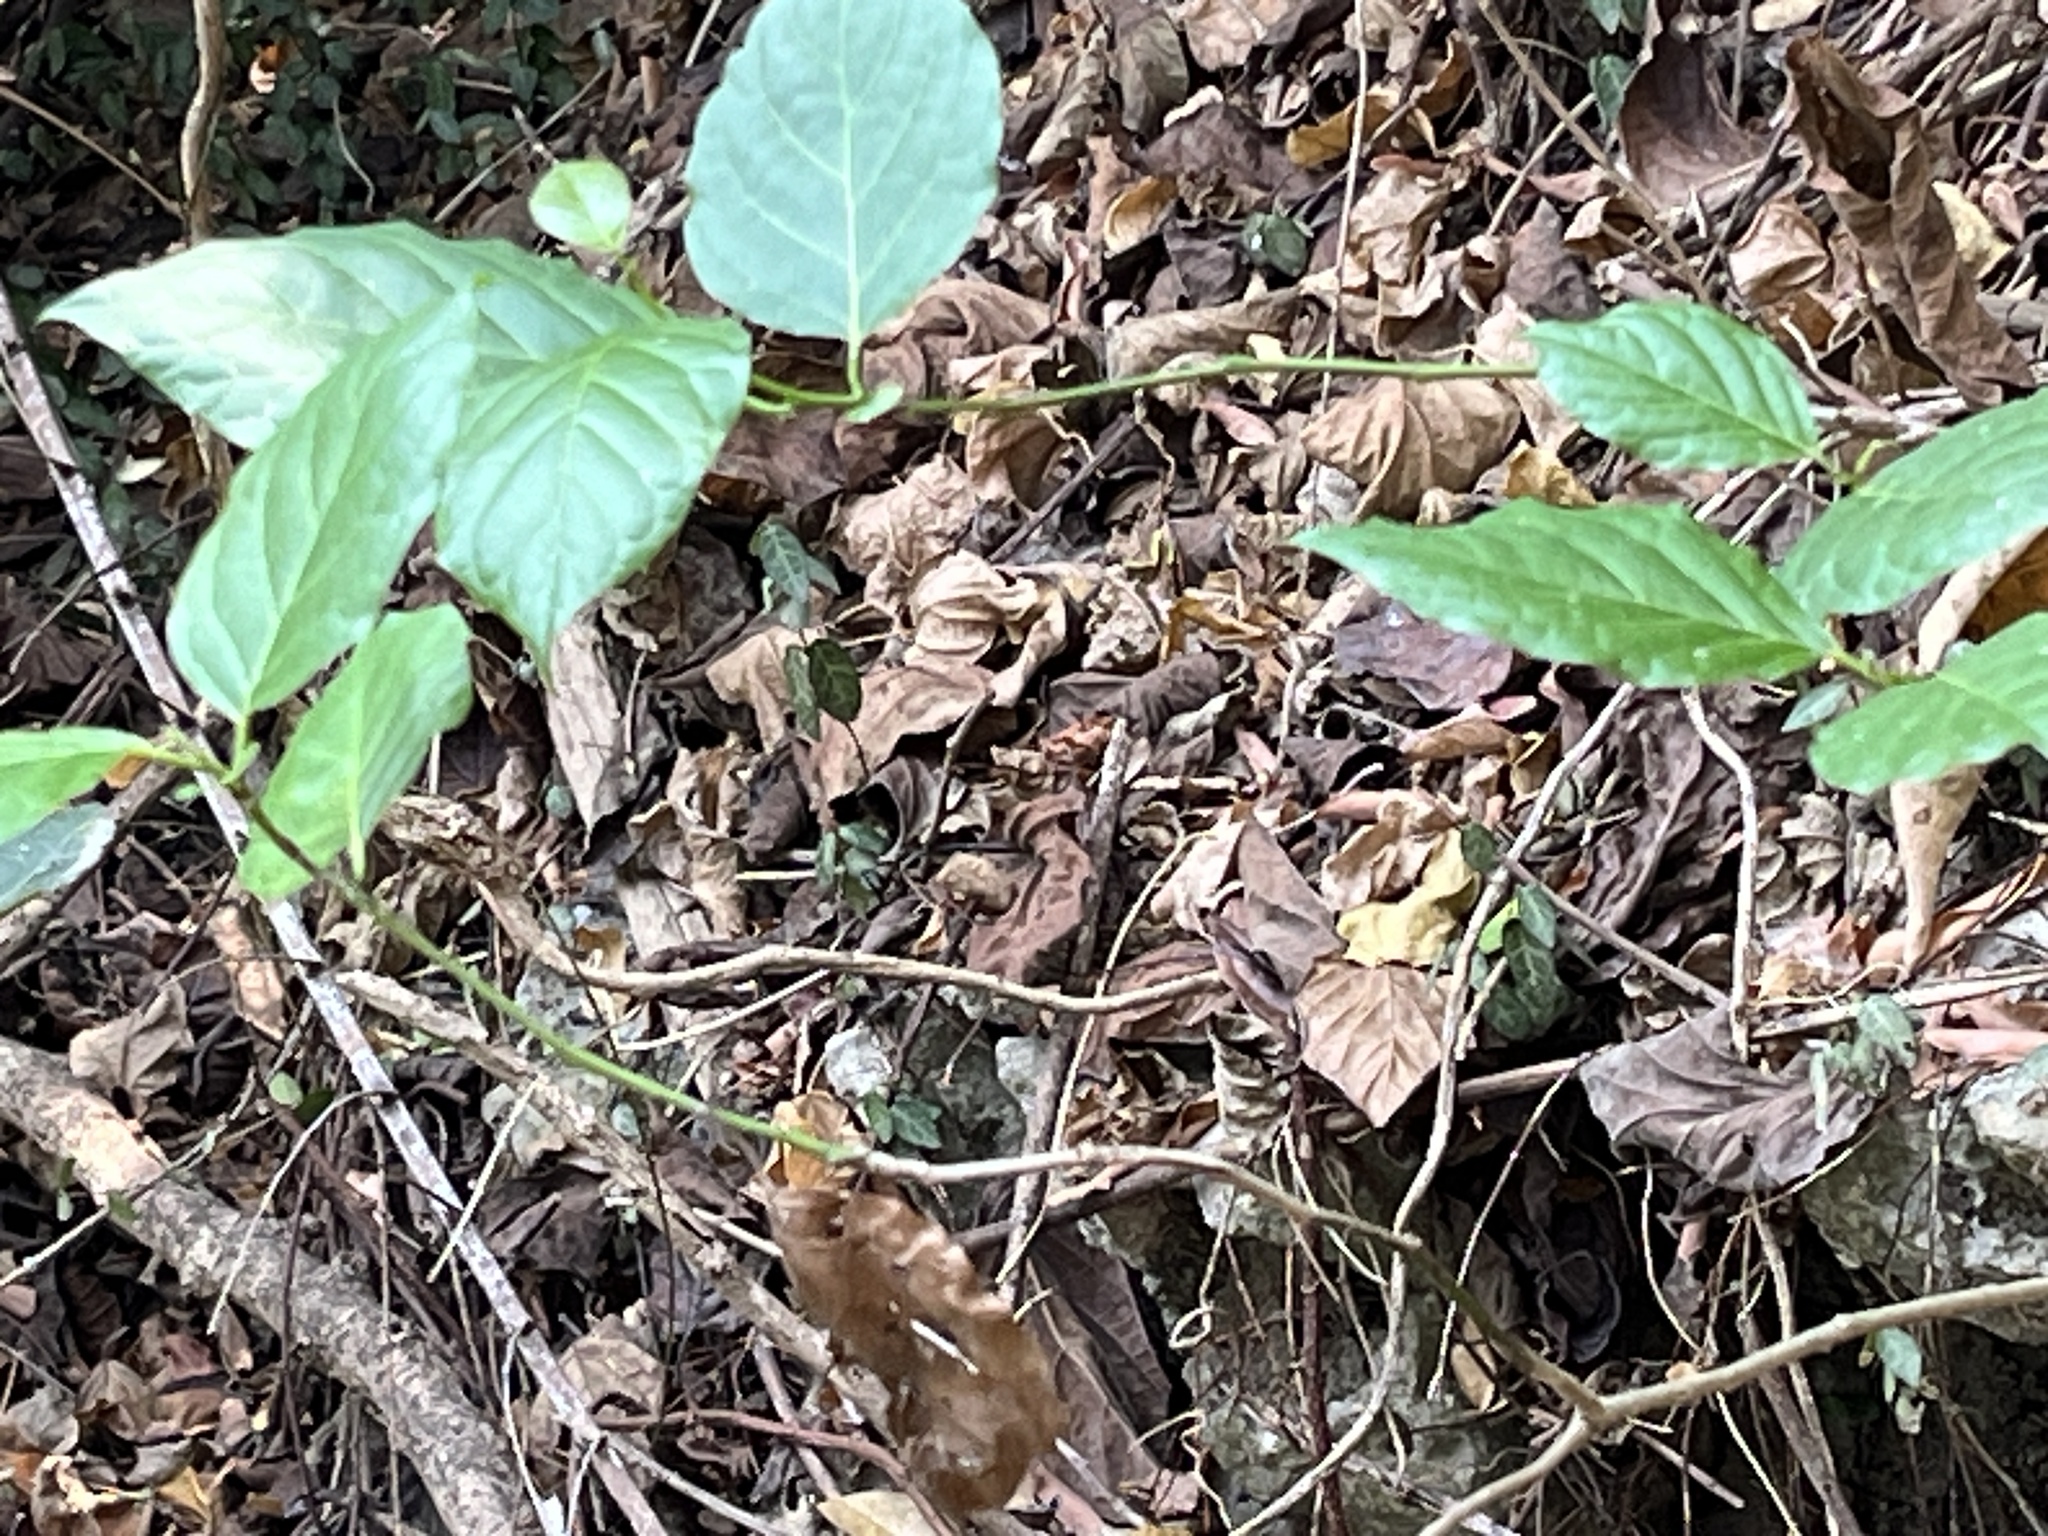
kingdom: Animalia
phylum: Chordata
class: Aves
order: Columbiformes
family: Columbidae
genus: Chalcophaps
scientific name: Chalcophaps indica
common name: Common emerald dove
